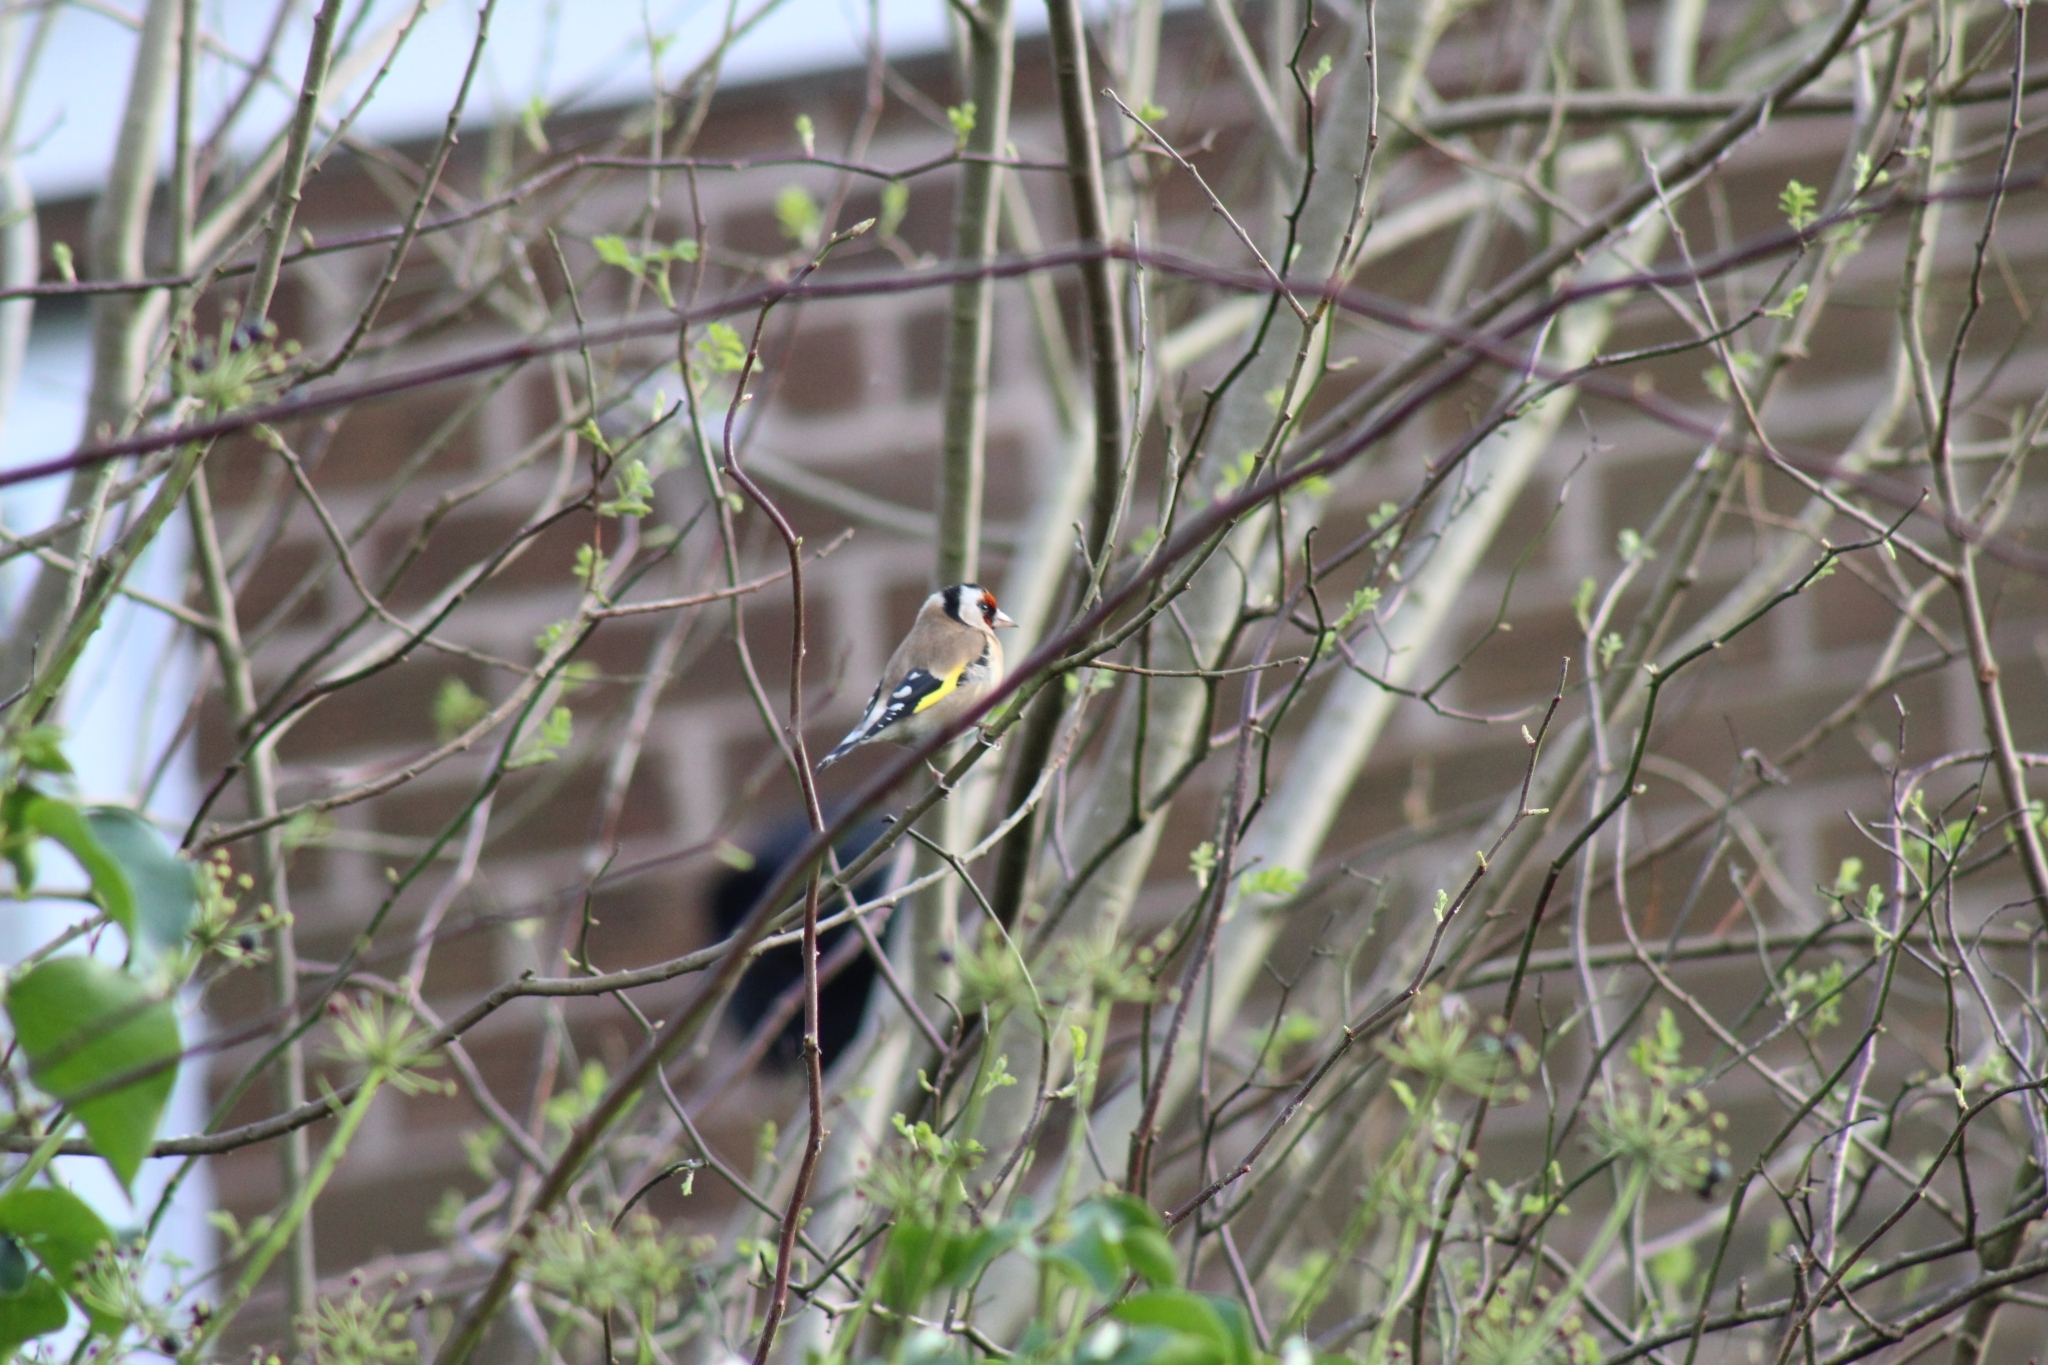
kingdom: Animalia
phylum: Chordata
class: Aves
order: Passeriformes
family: Fringillidae
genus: Carduelis
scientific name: Carduelis carduelis
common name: European goldfinch
